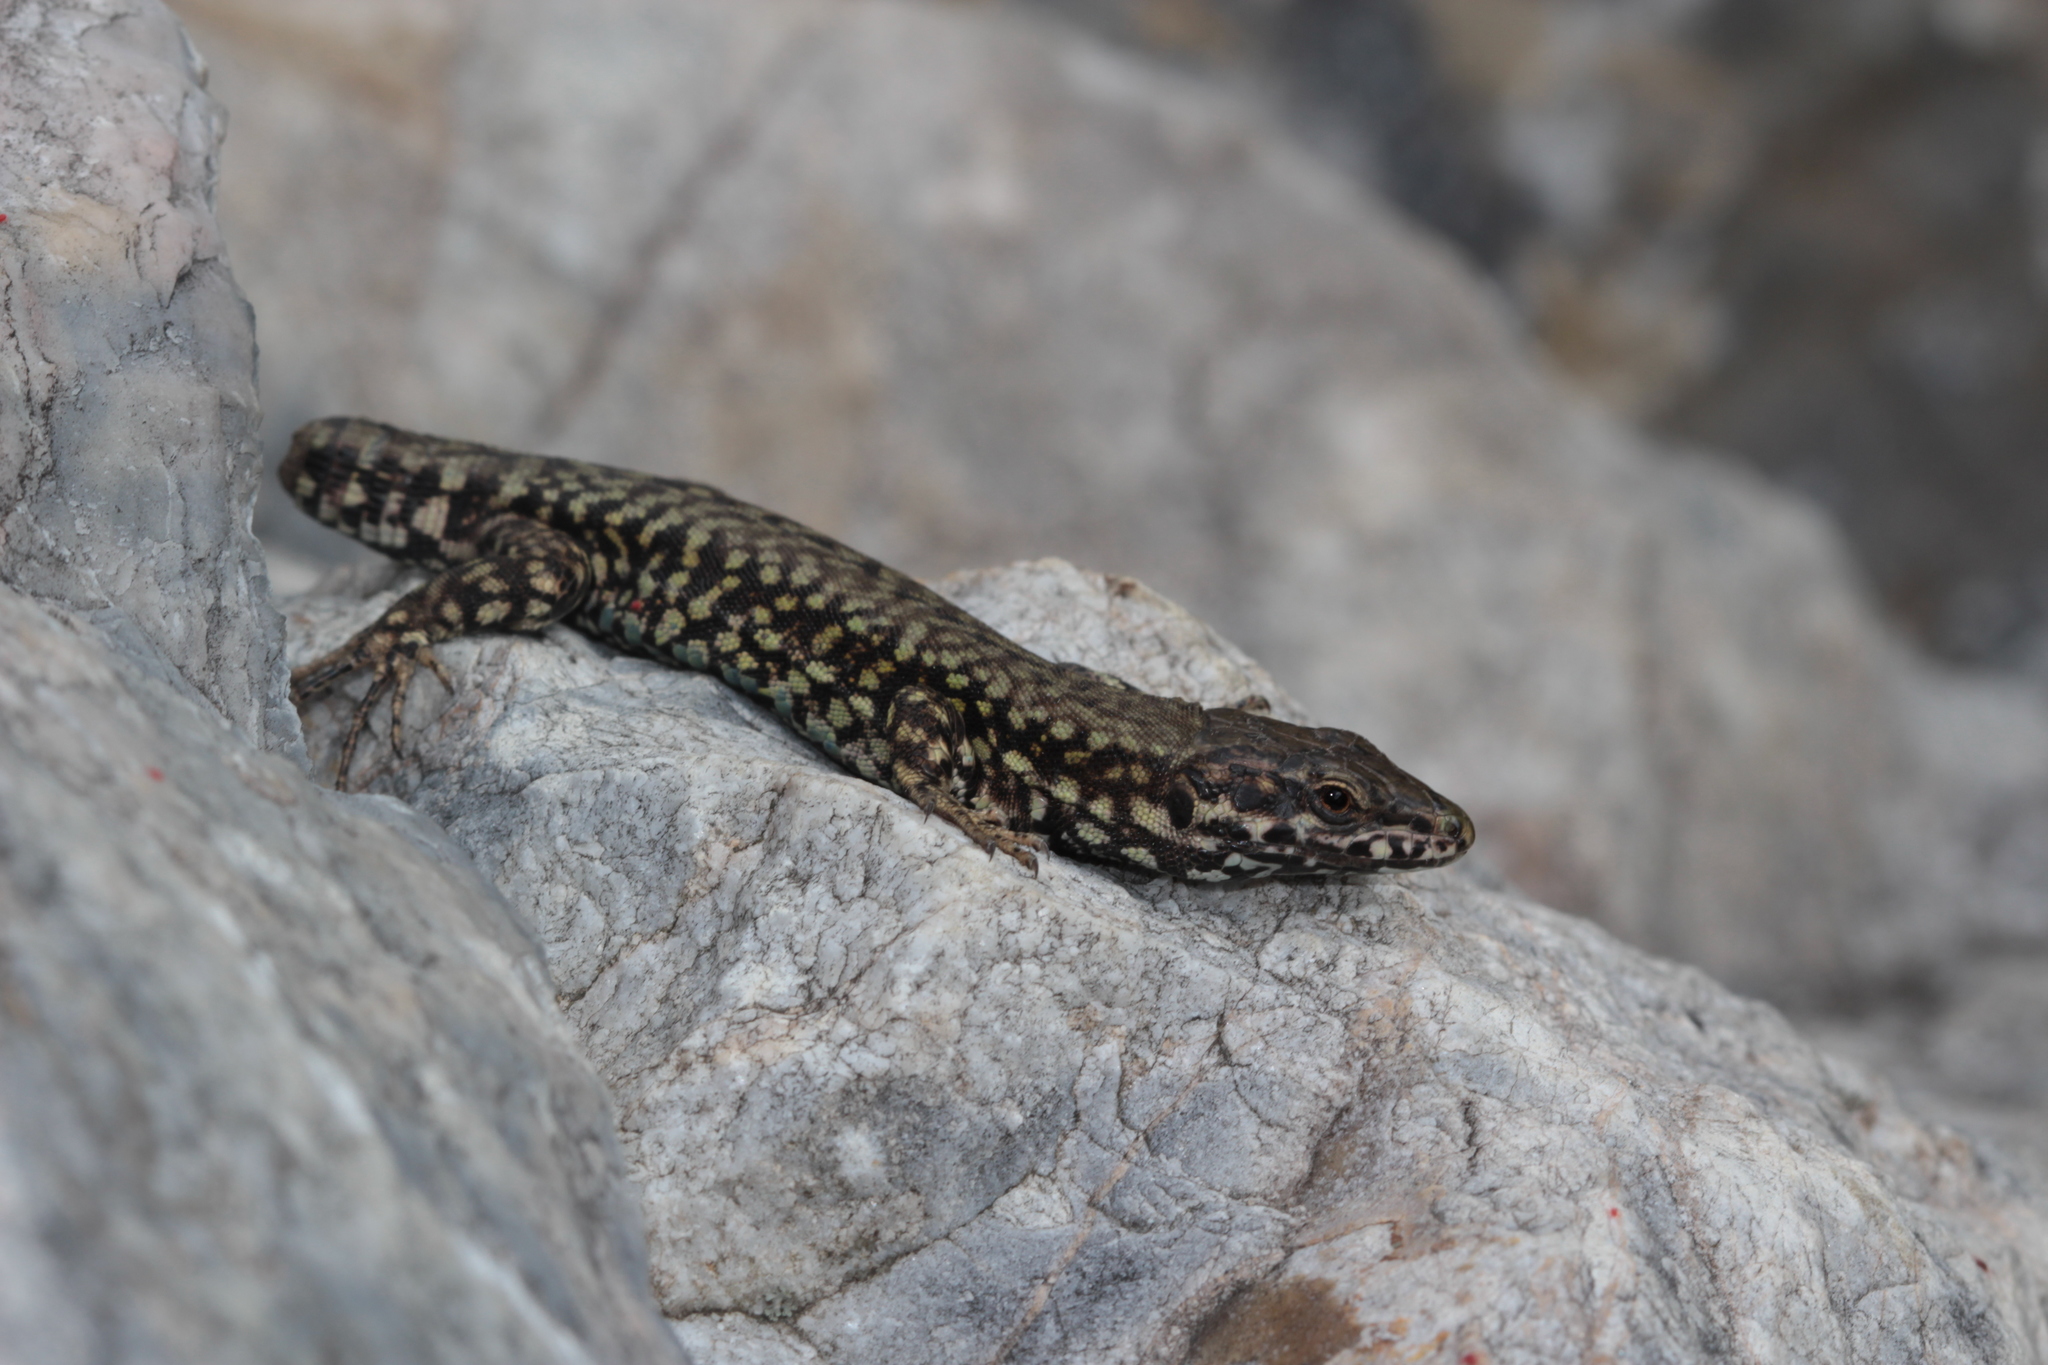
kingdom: Animalia
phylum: Chordata
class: Squamata
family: Lacertidae
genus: Podarcis
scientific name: Podarcis muralis
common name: Common wall lizard
